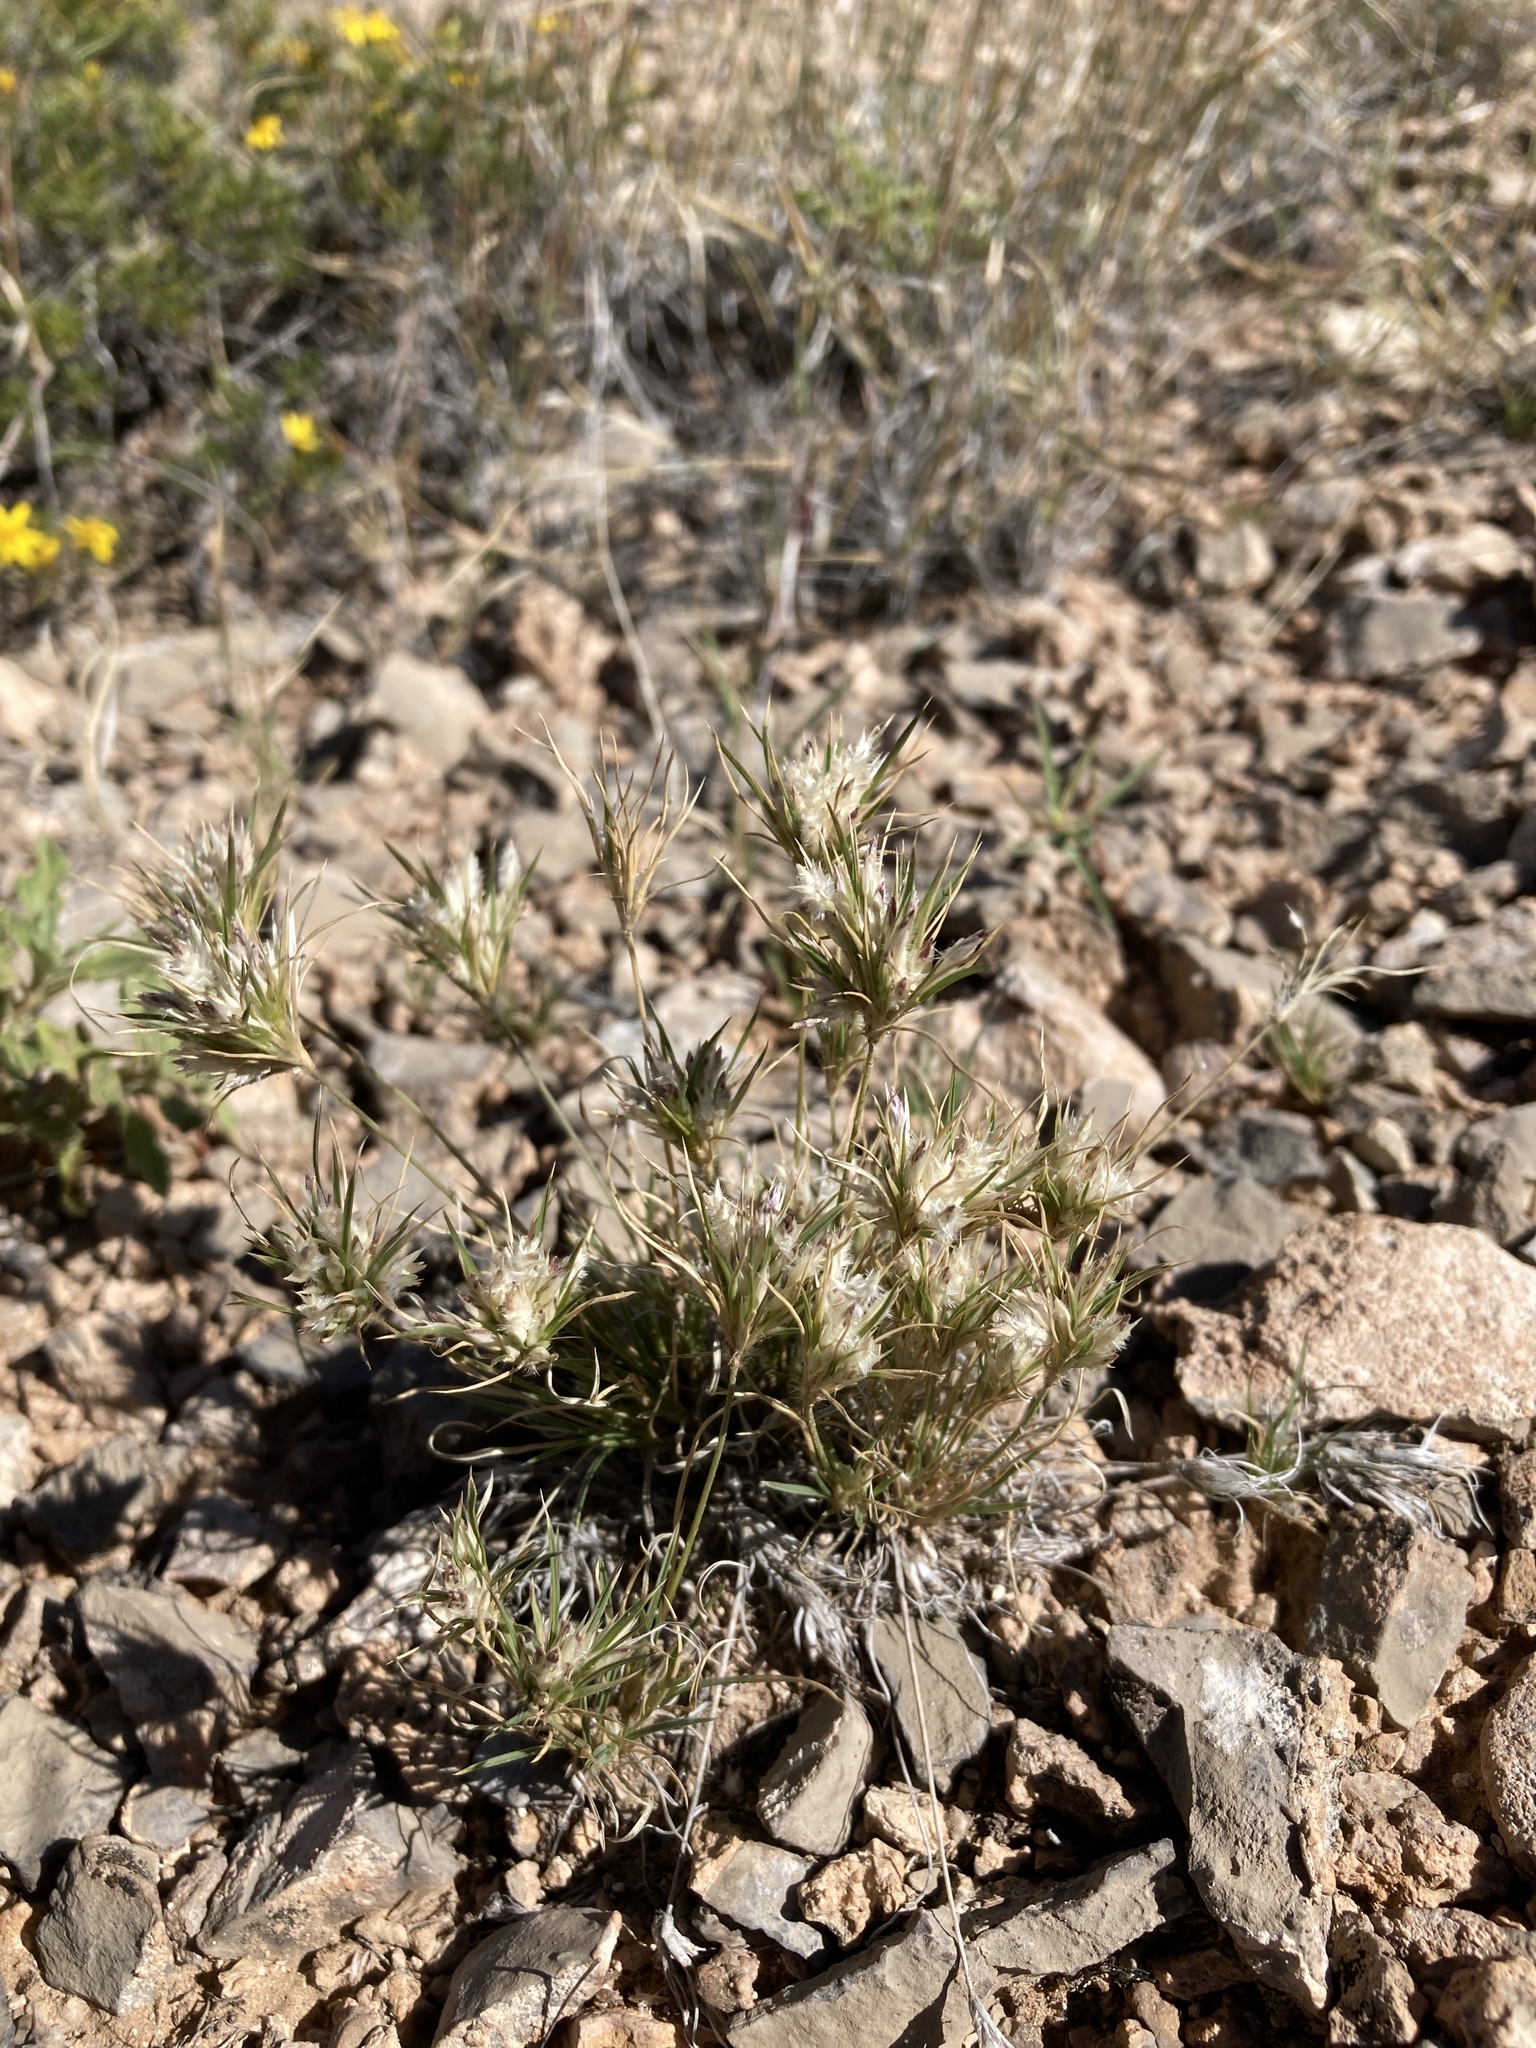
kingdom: Plantae
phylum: Tracheophyta
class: Liliopsida
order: Poales
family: Poaceae
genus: Dasyochloa
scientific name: Dasyochloa pulchella
